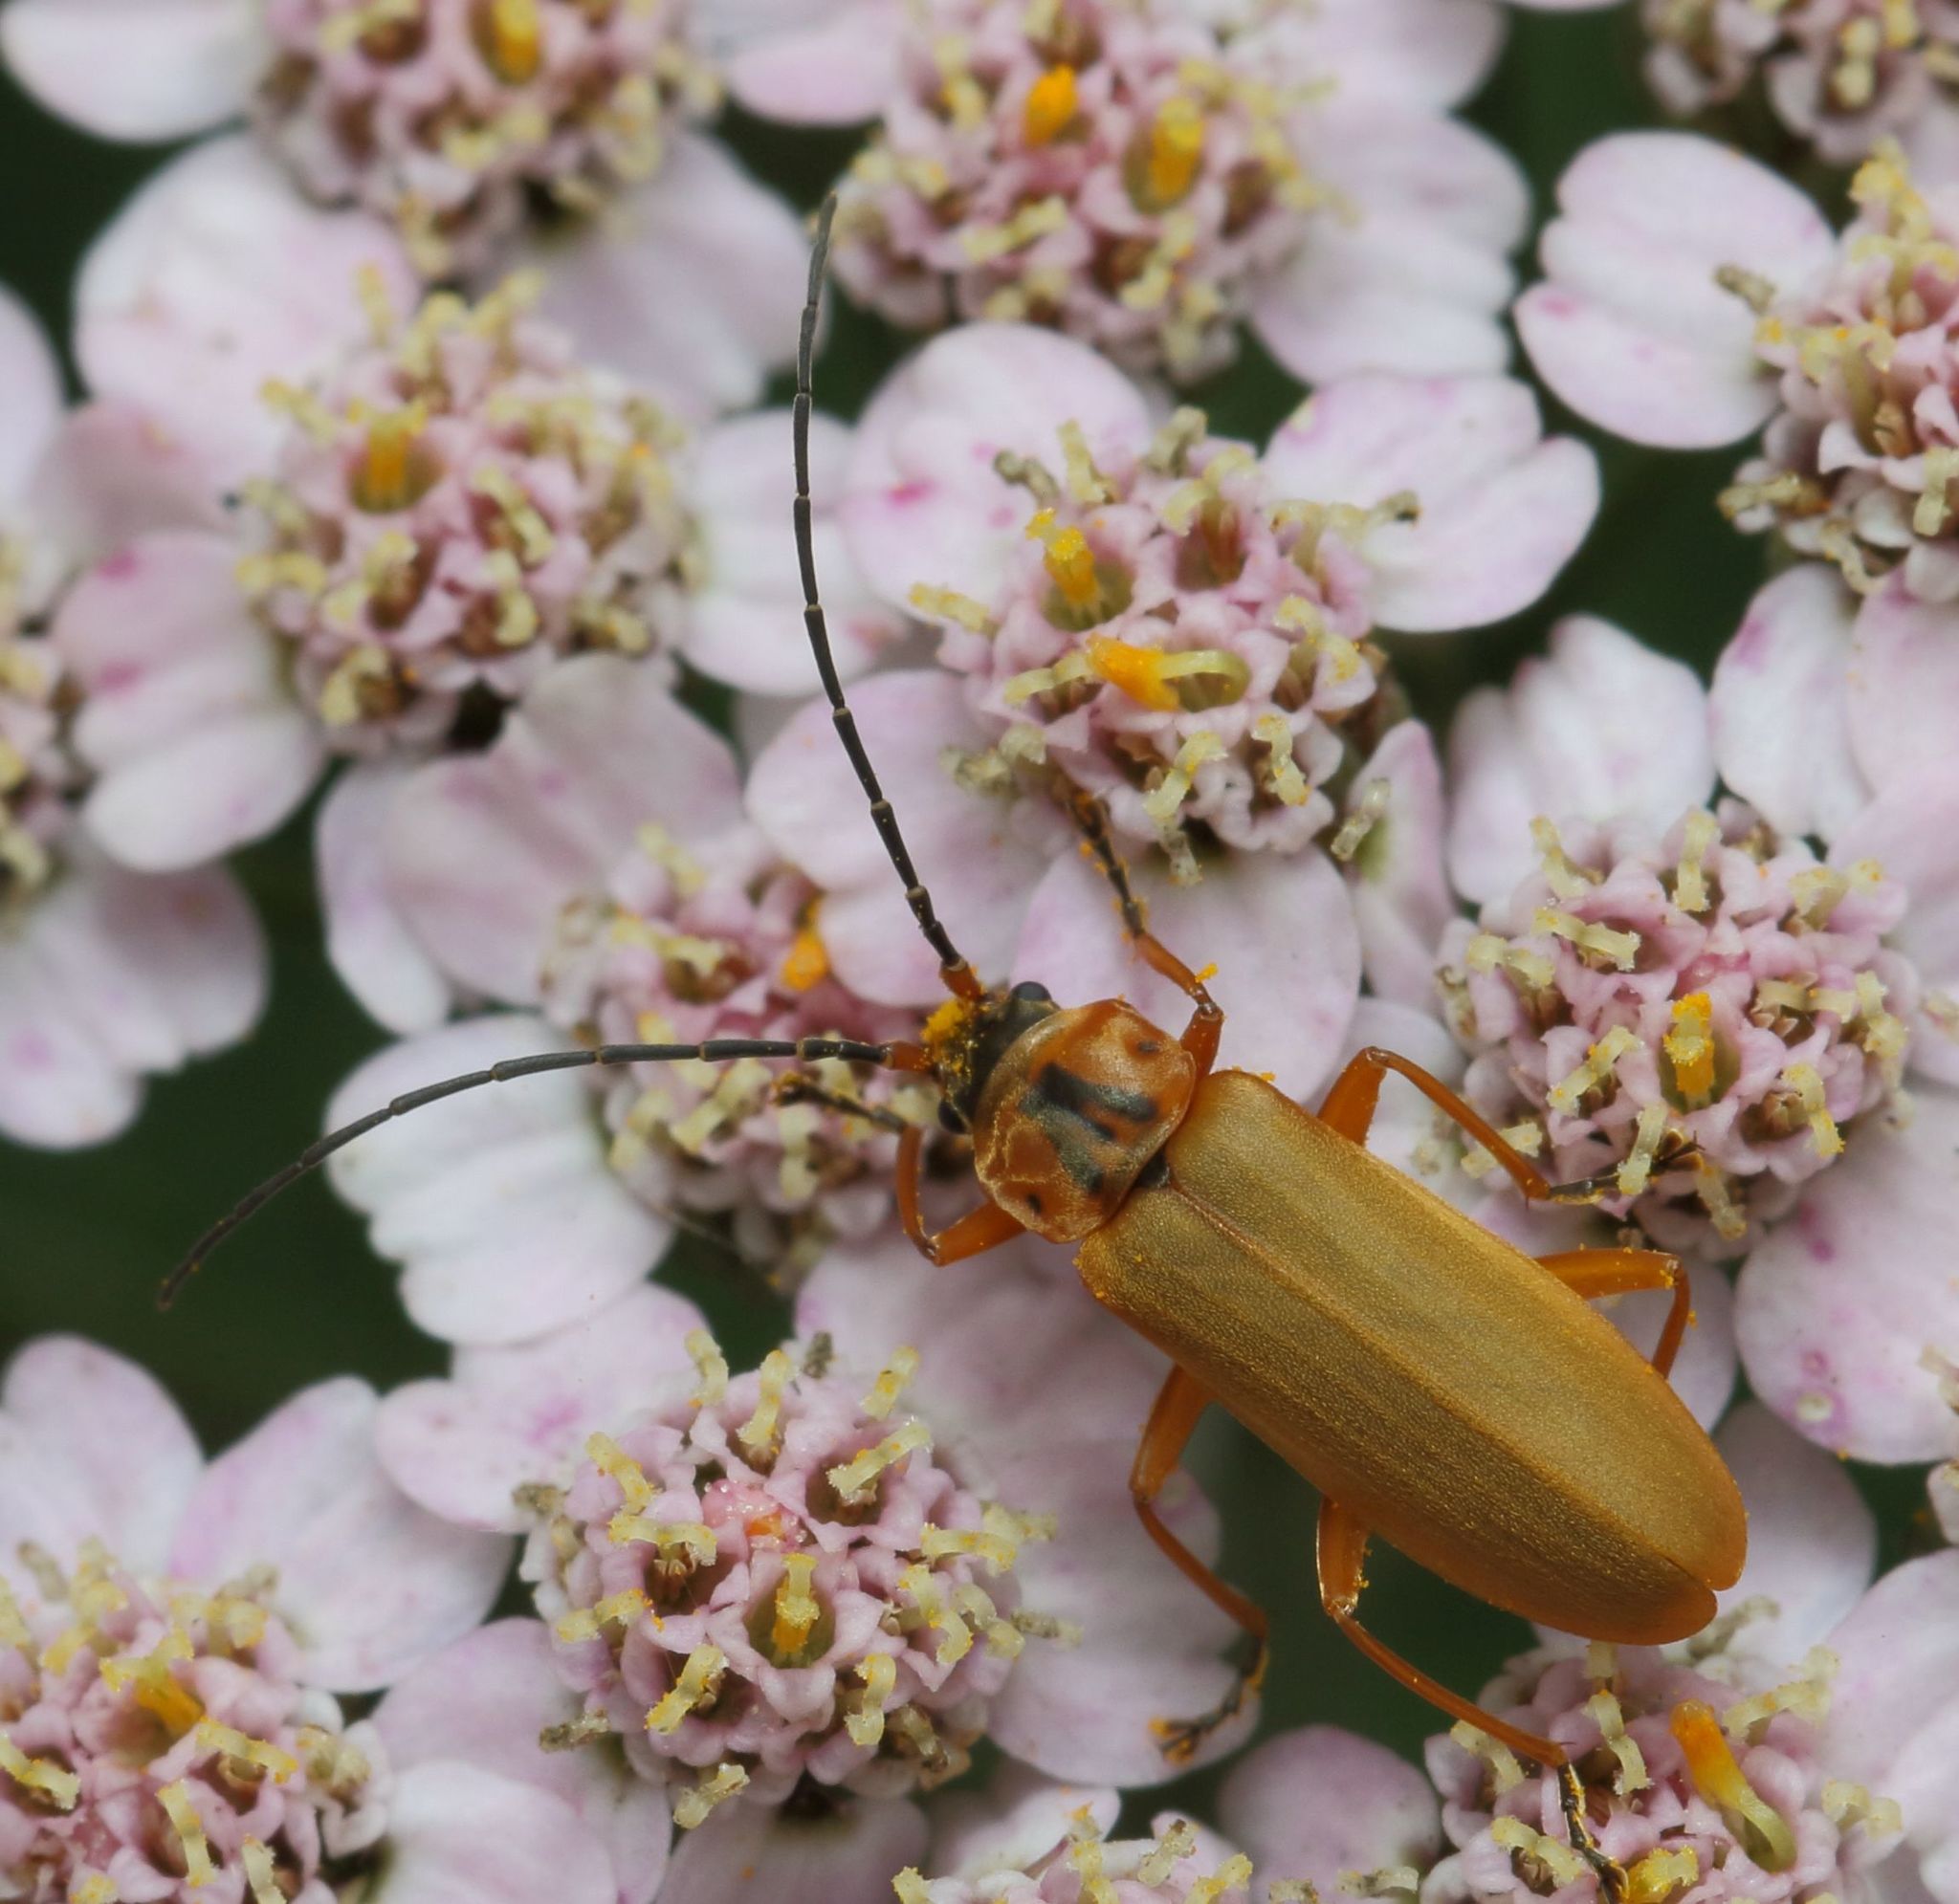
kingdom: Animalia
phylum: Arthropoda
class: Insecta
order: Coleoptera
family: Cantharidae
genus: Afronycha
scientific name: Afronycha
